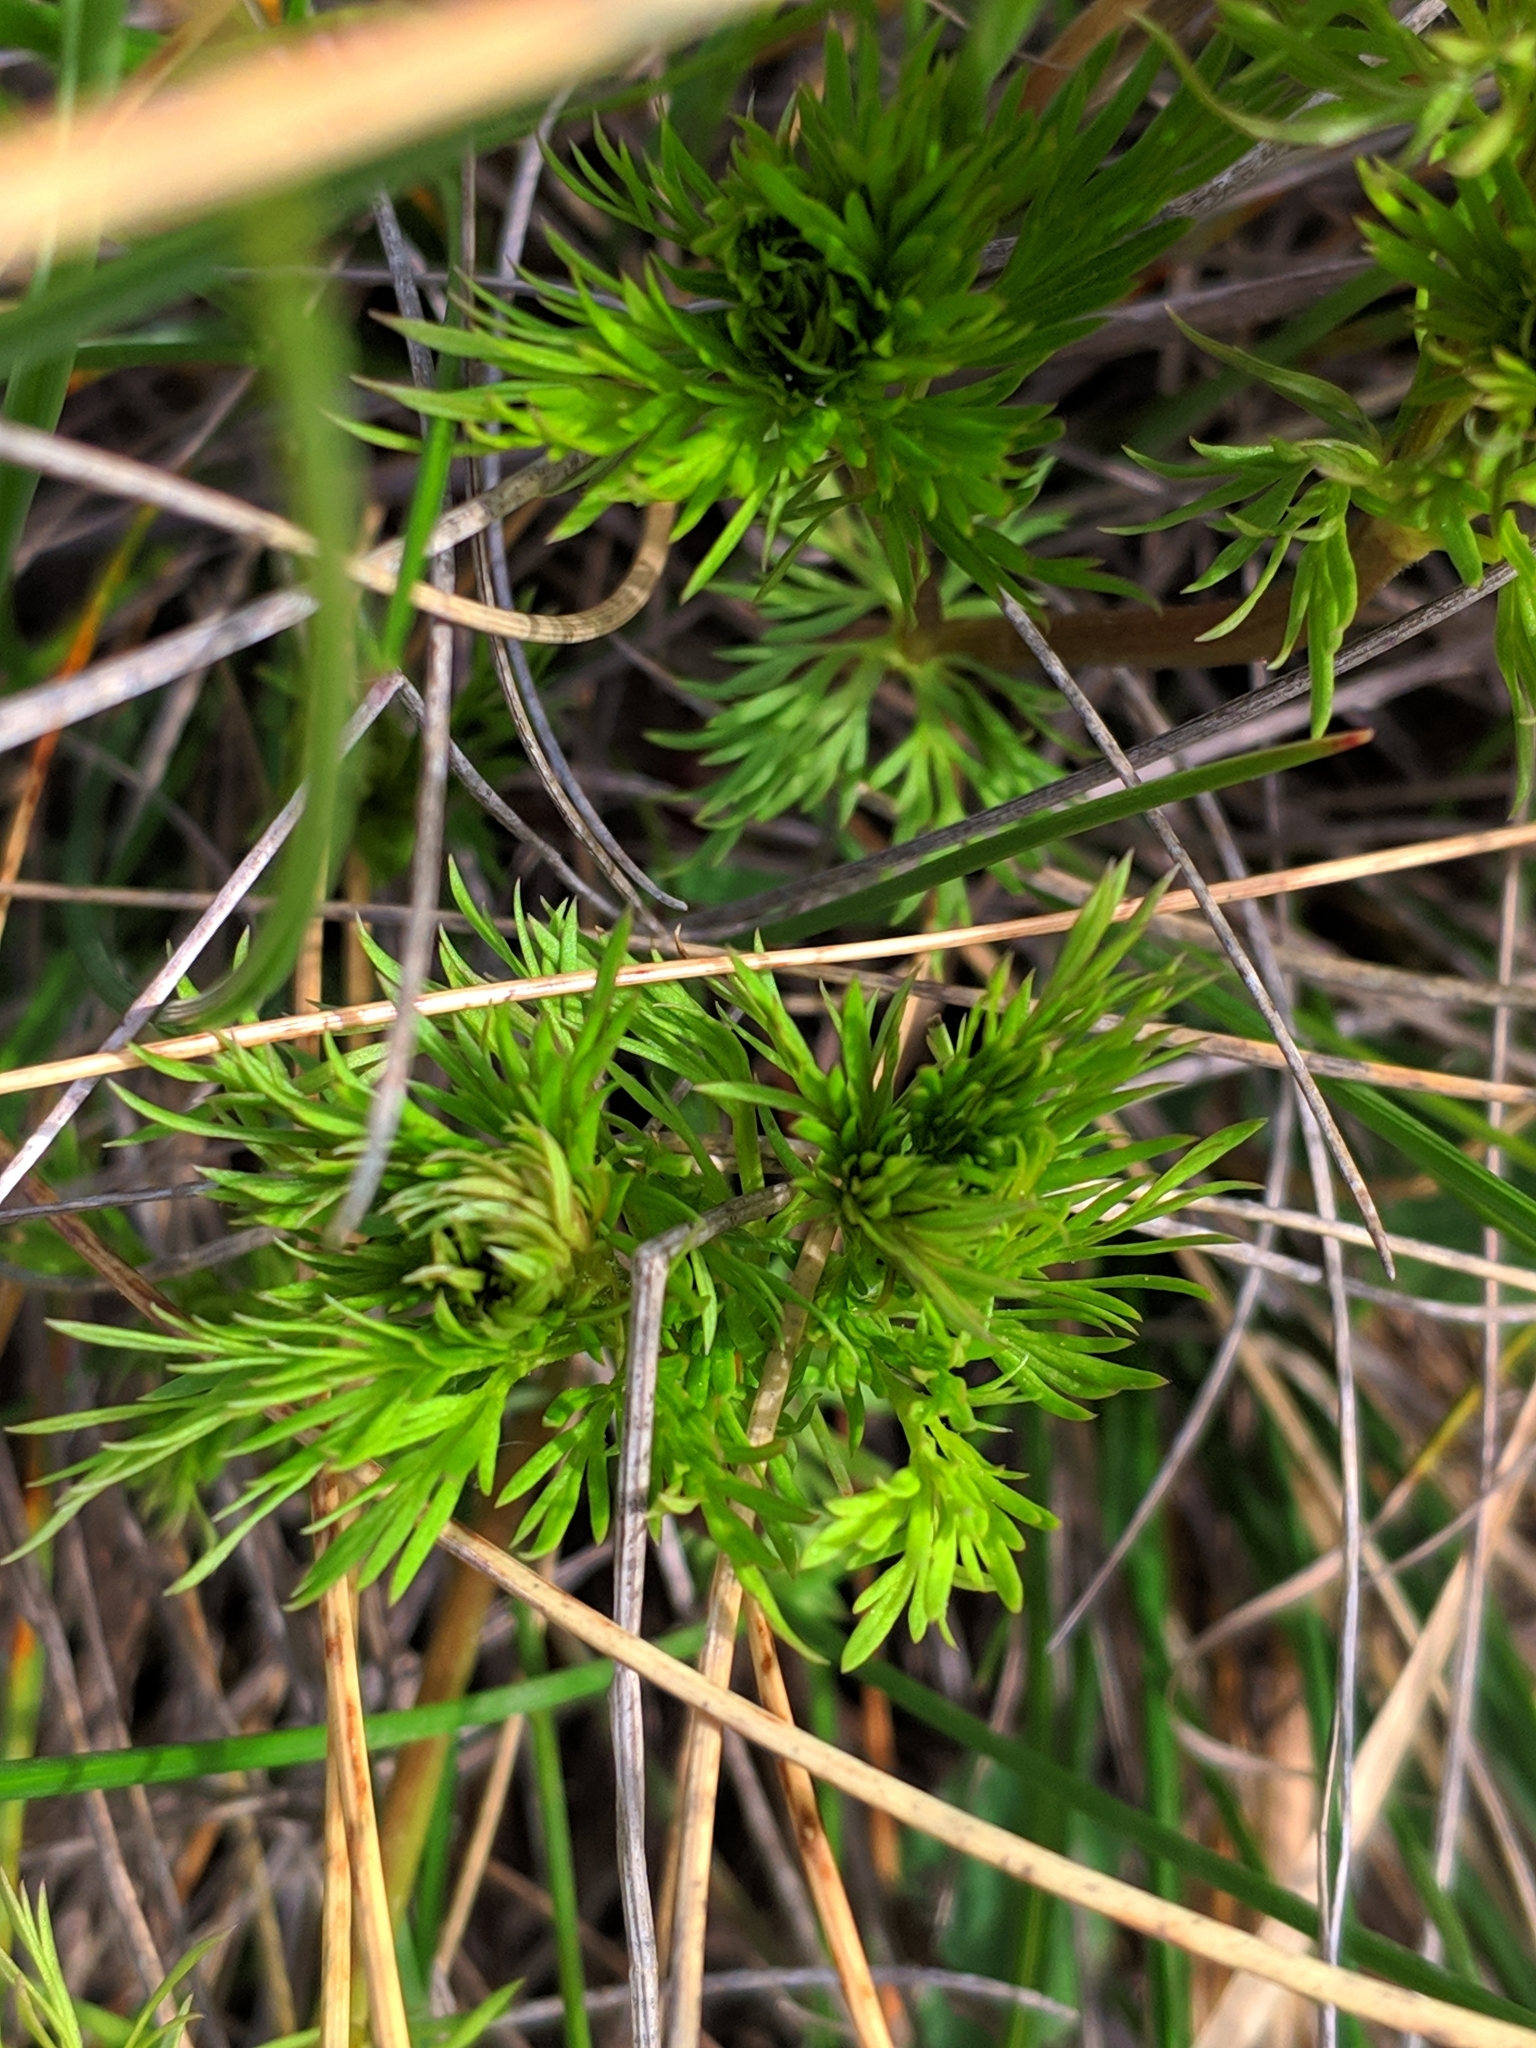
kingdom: Plantae
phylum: Tracheophyta
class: Magnoliopsida
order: Ranunculales
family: Ranunculaceae
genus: Adonis
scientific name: Adonis vernalis
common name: Yellow pheasants-eye
